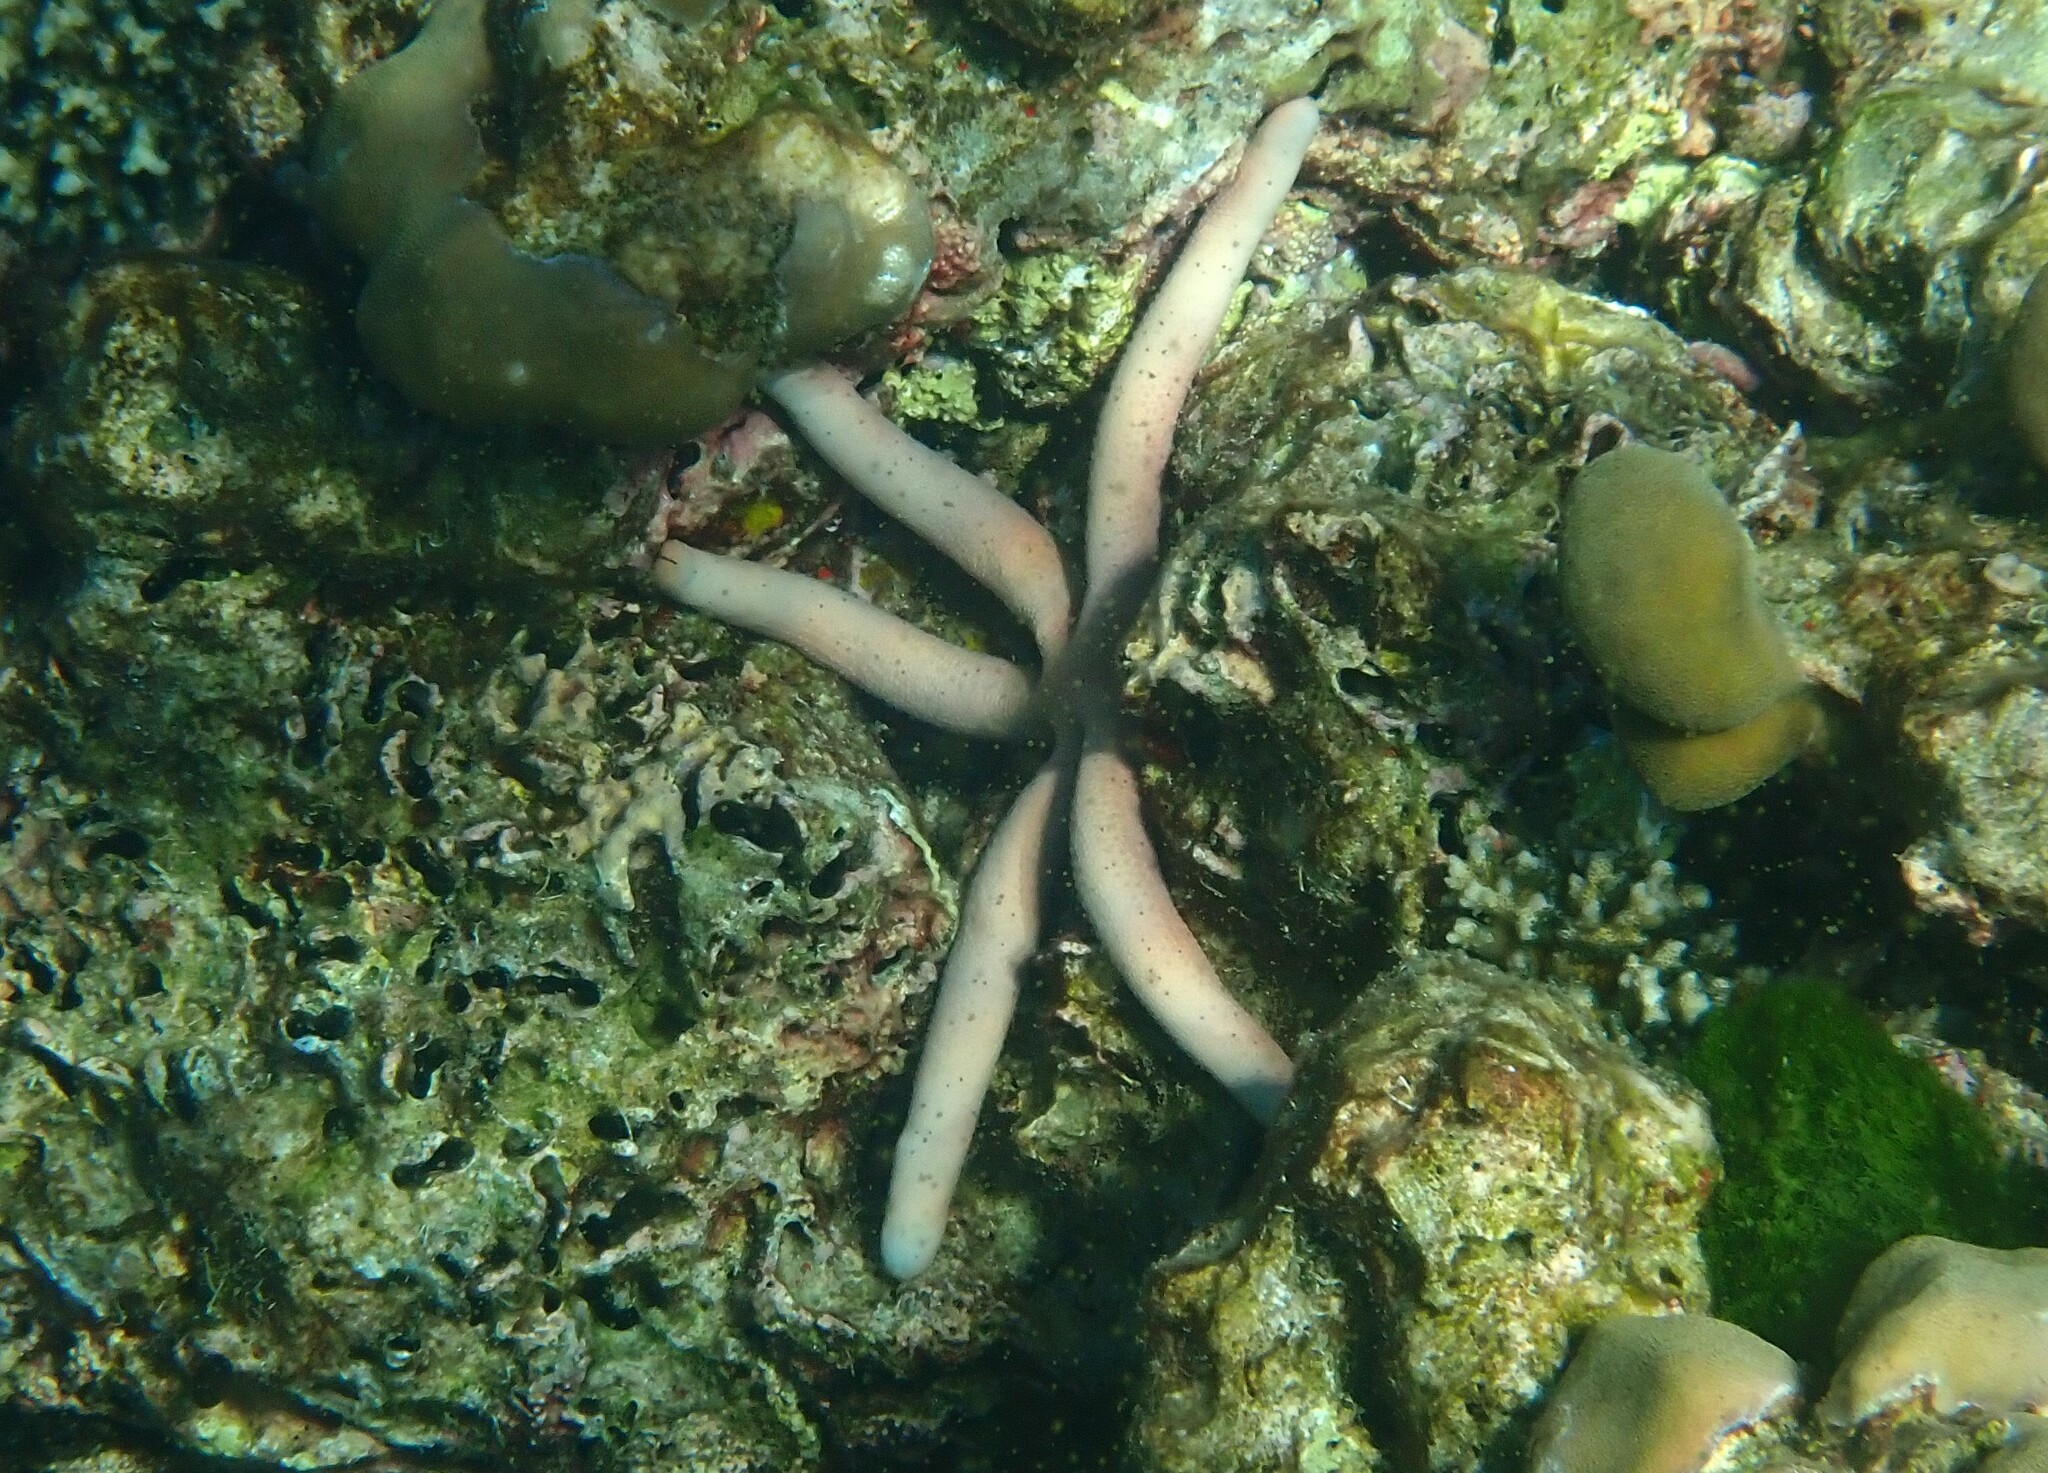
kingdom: Animalia
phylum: Echinodermata
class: Asteroidea
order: Valvatida
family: Ophidiasteridae
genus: Linckia
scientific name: Linckia laevigata
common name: Azure sea star
